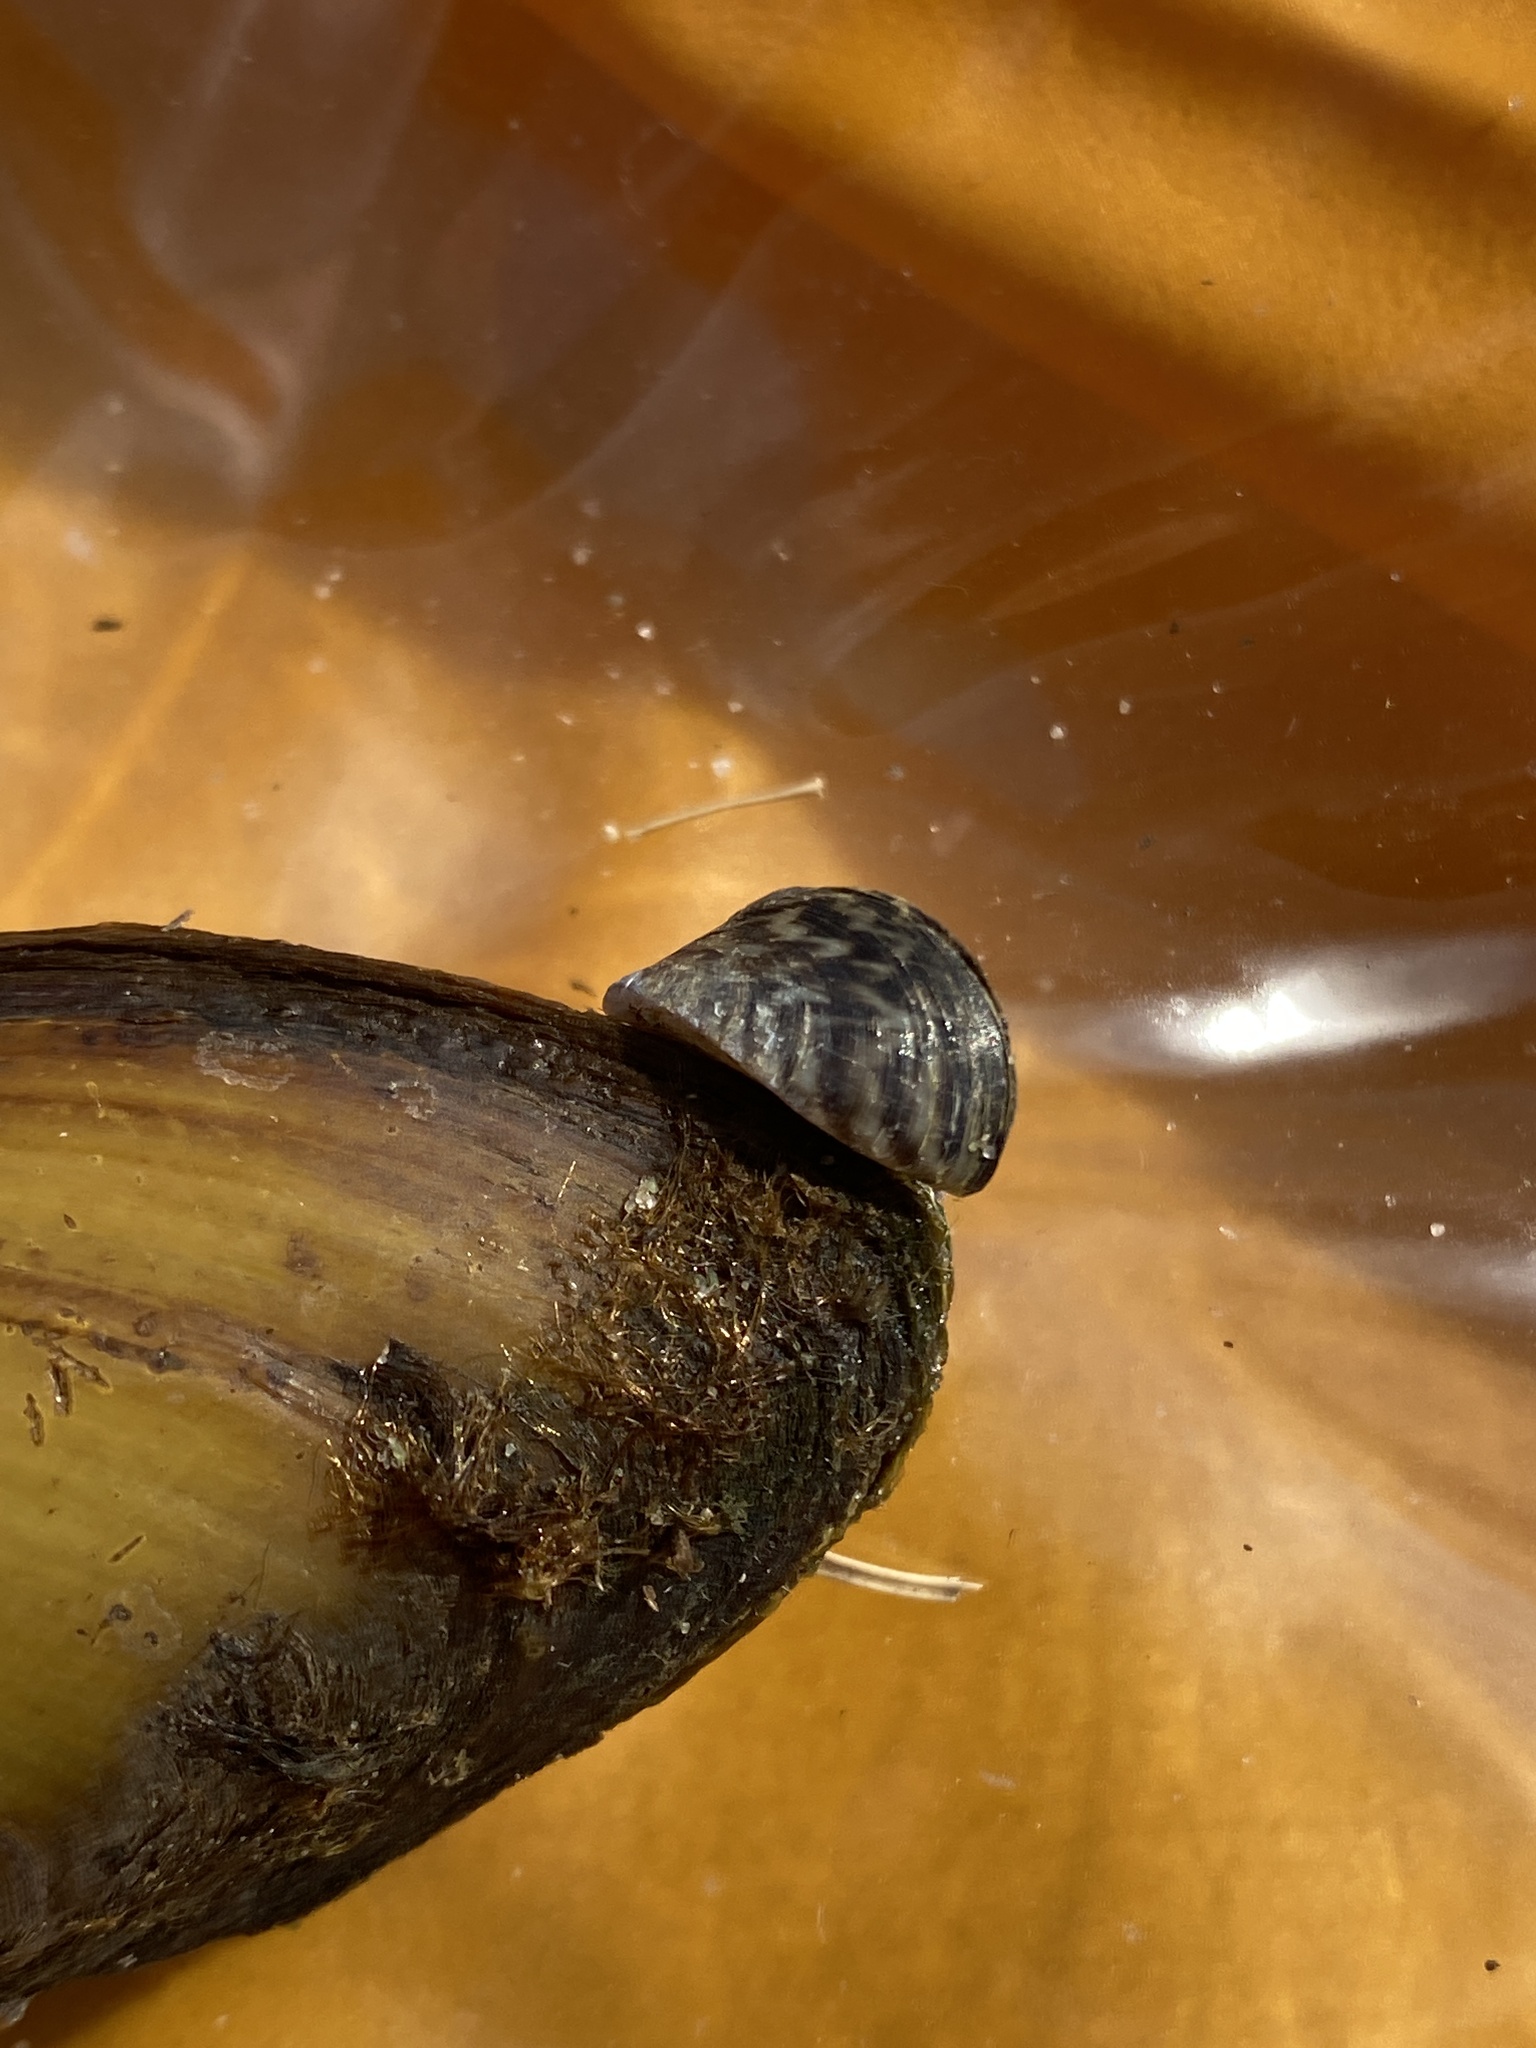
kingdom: Animalia
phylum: Mollusca
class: Bivalvia
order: Myida
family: Dreissenidae
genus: Dreissena
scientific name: Dreissena polymorpha
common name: Zebra mussel
